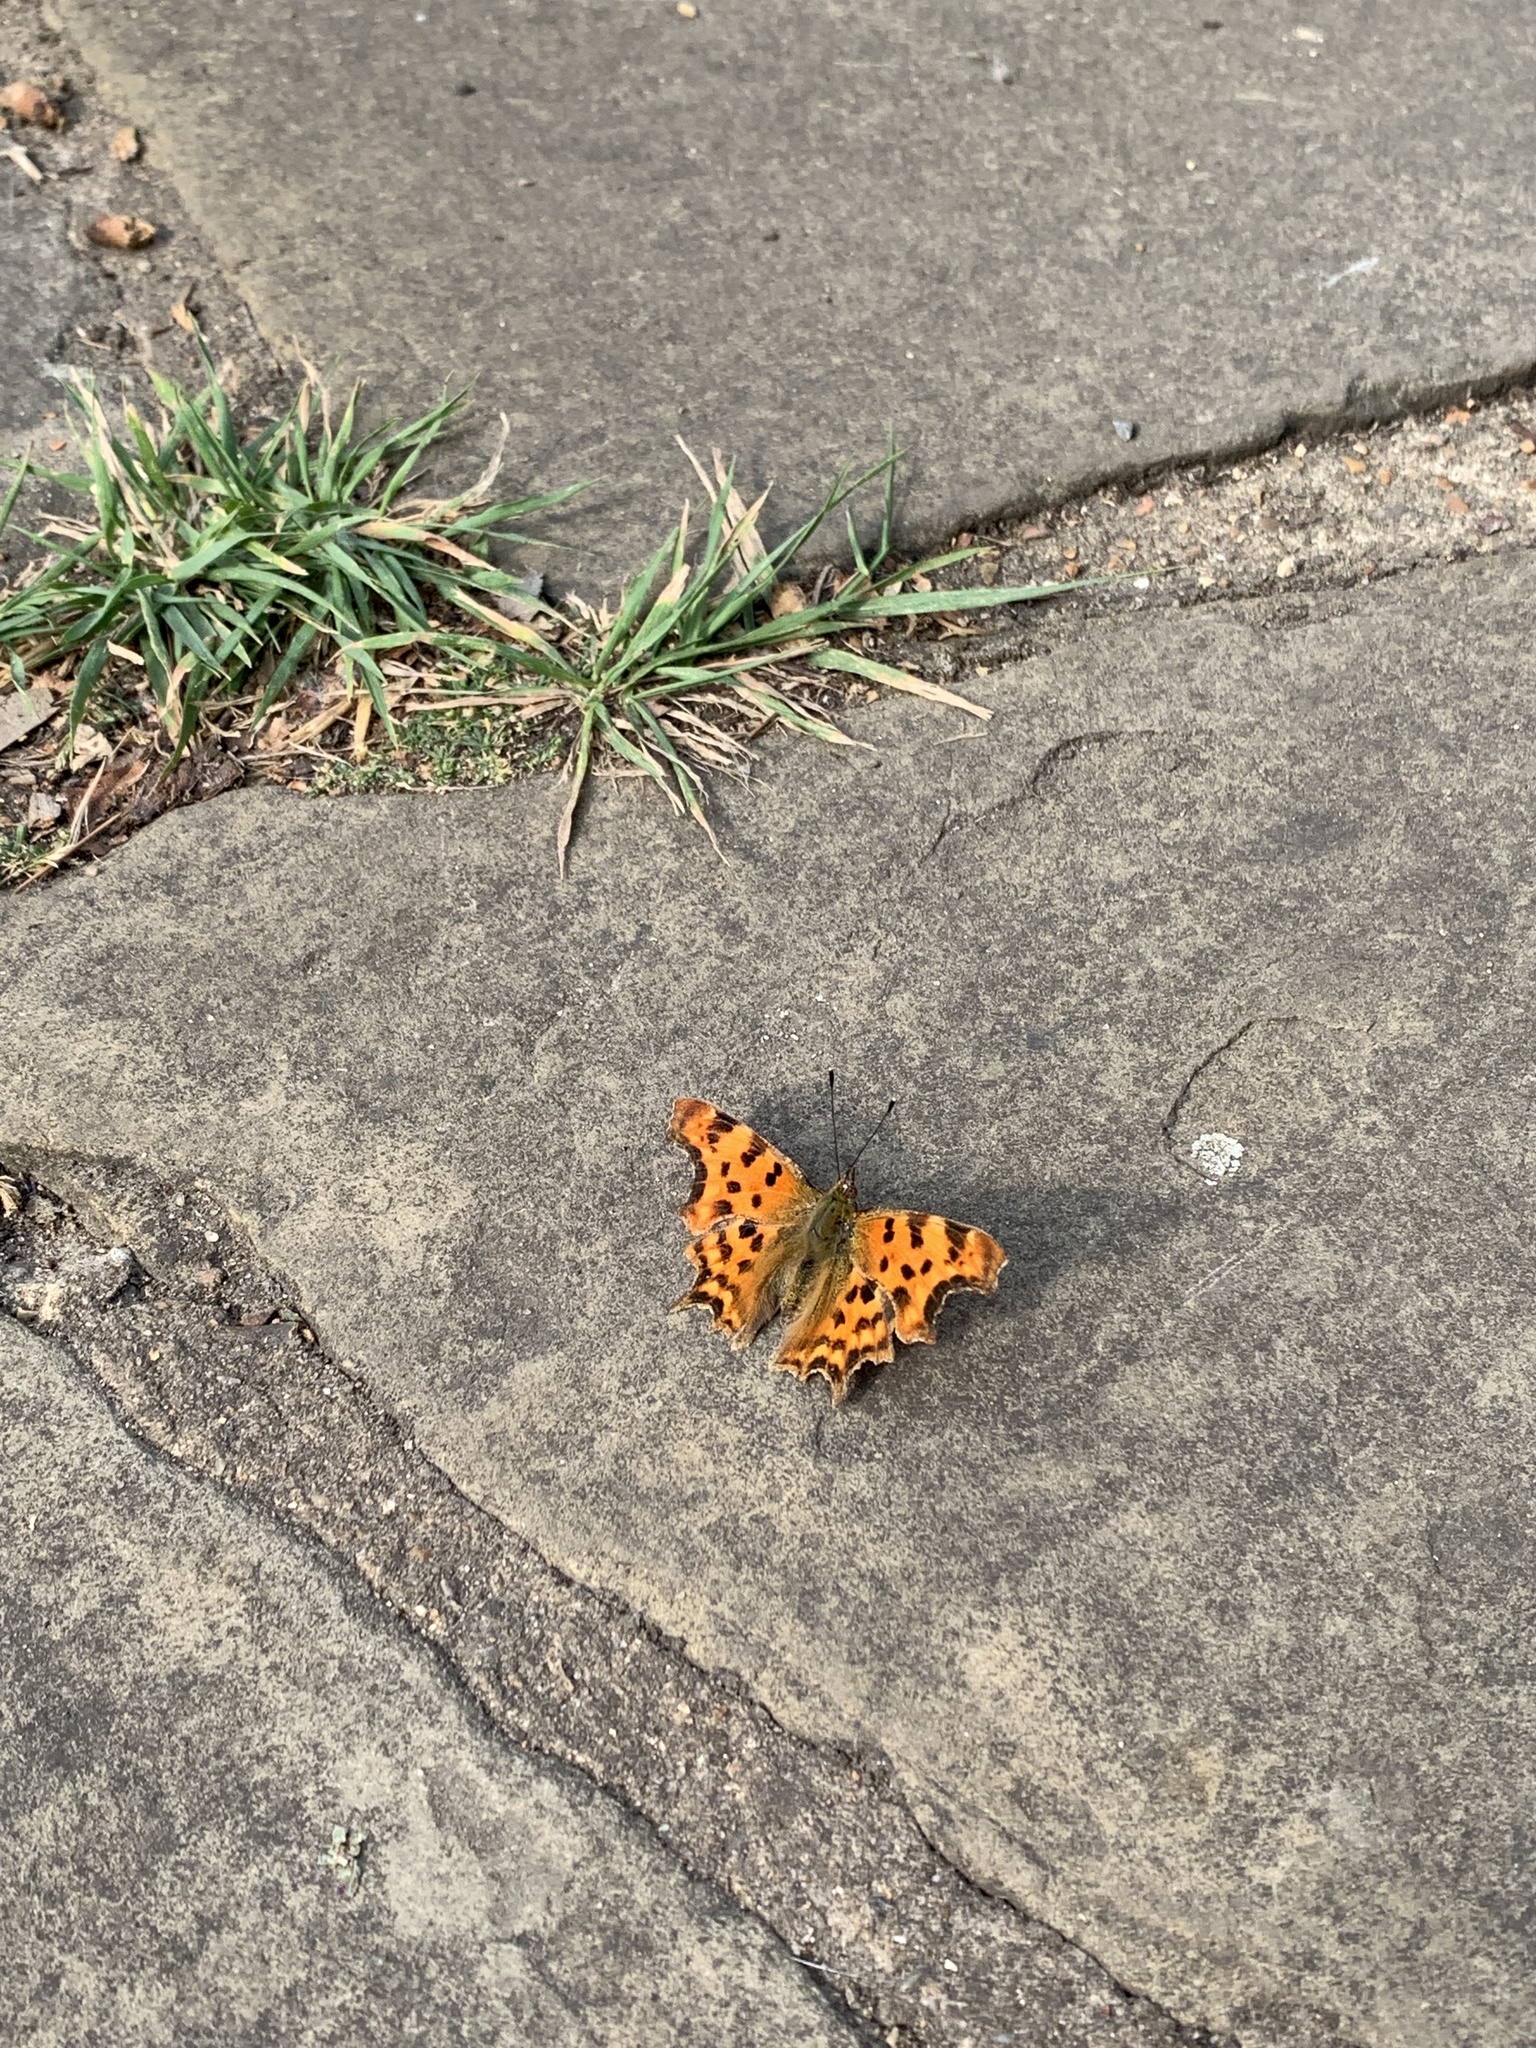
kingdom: Animalia
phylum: Arthropoda
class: Insecta
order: Lepidoptera
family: Nymphalidae
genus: Polygonia
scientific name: Polygonia c-album
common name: Comma
